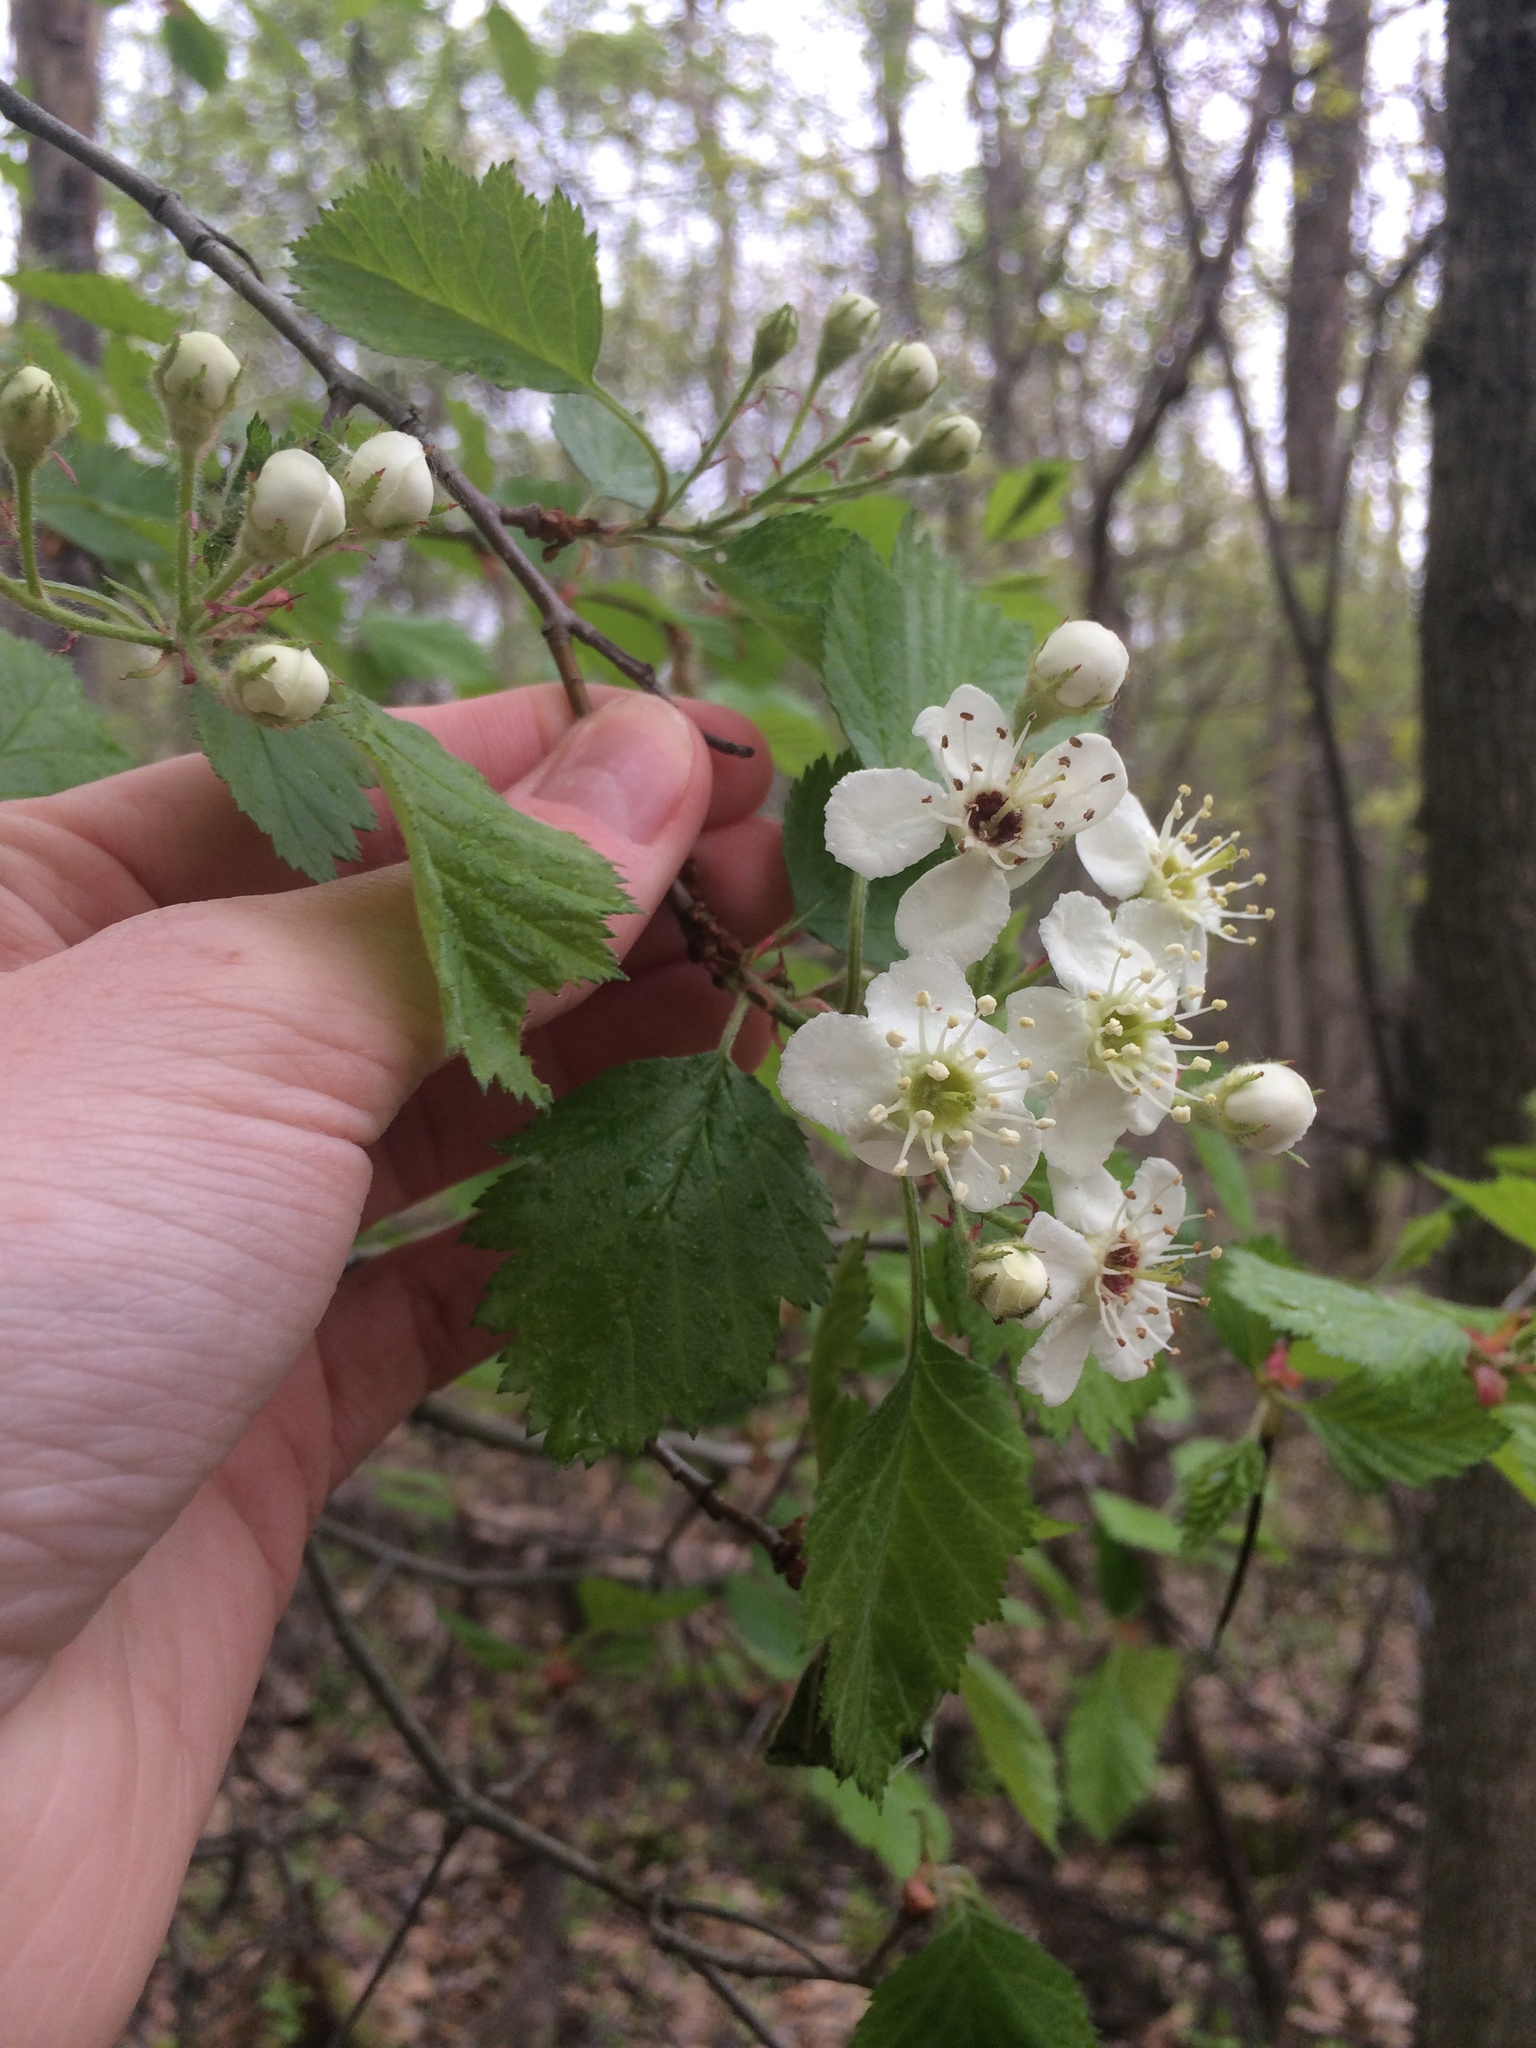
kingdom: Plantae
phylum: Tracheophyta
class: Magnoliopsida
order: Rosales
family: Rosaceae
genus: Crataegus
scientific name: Crataegus submollis
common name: Hairy cockspurthorn
